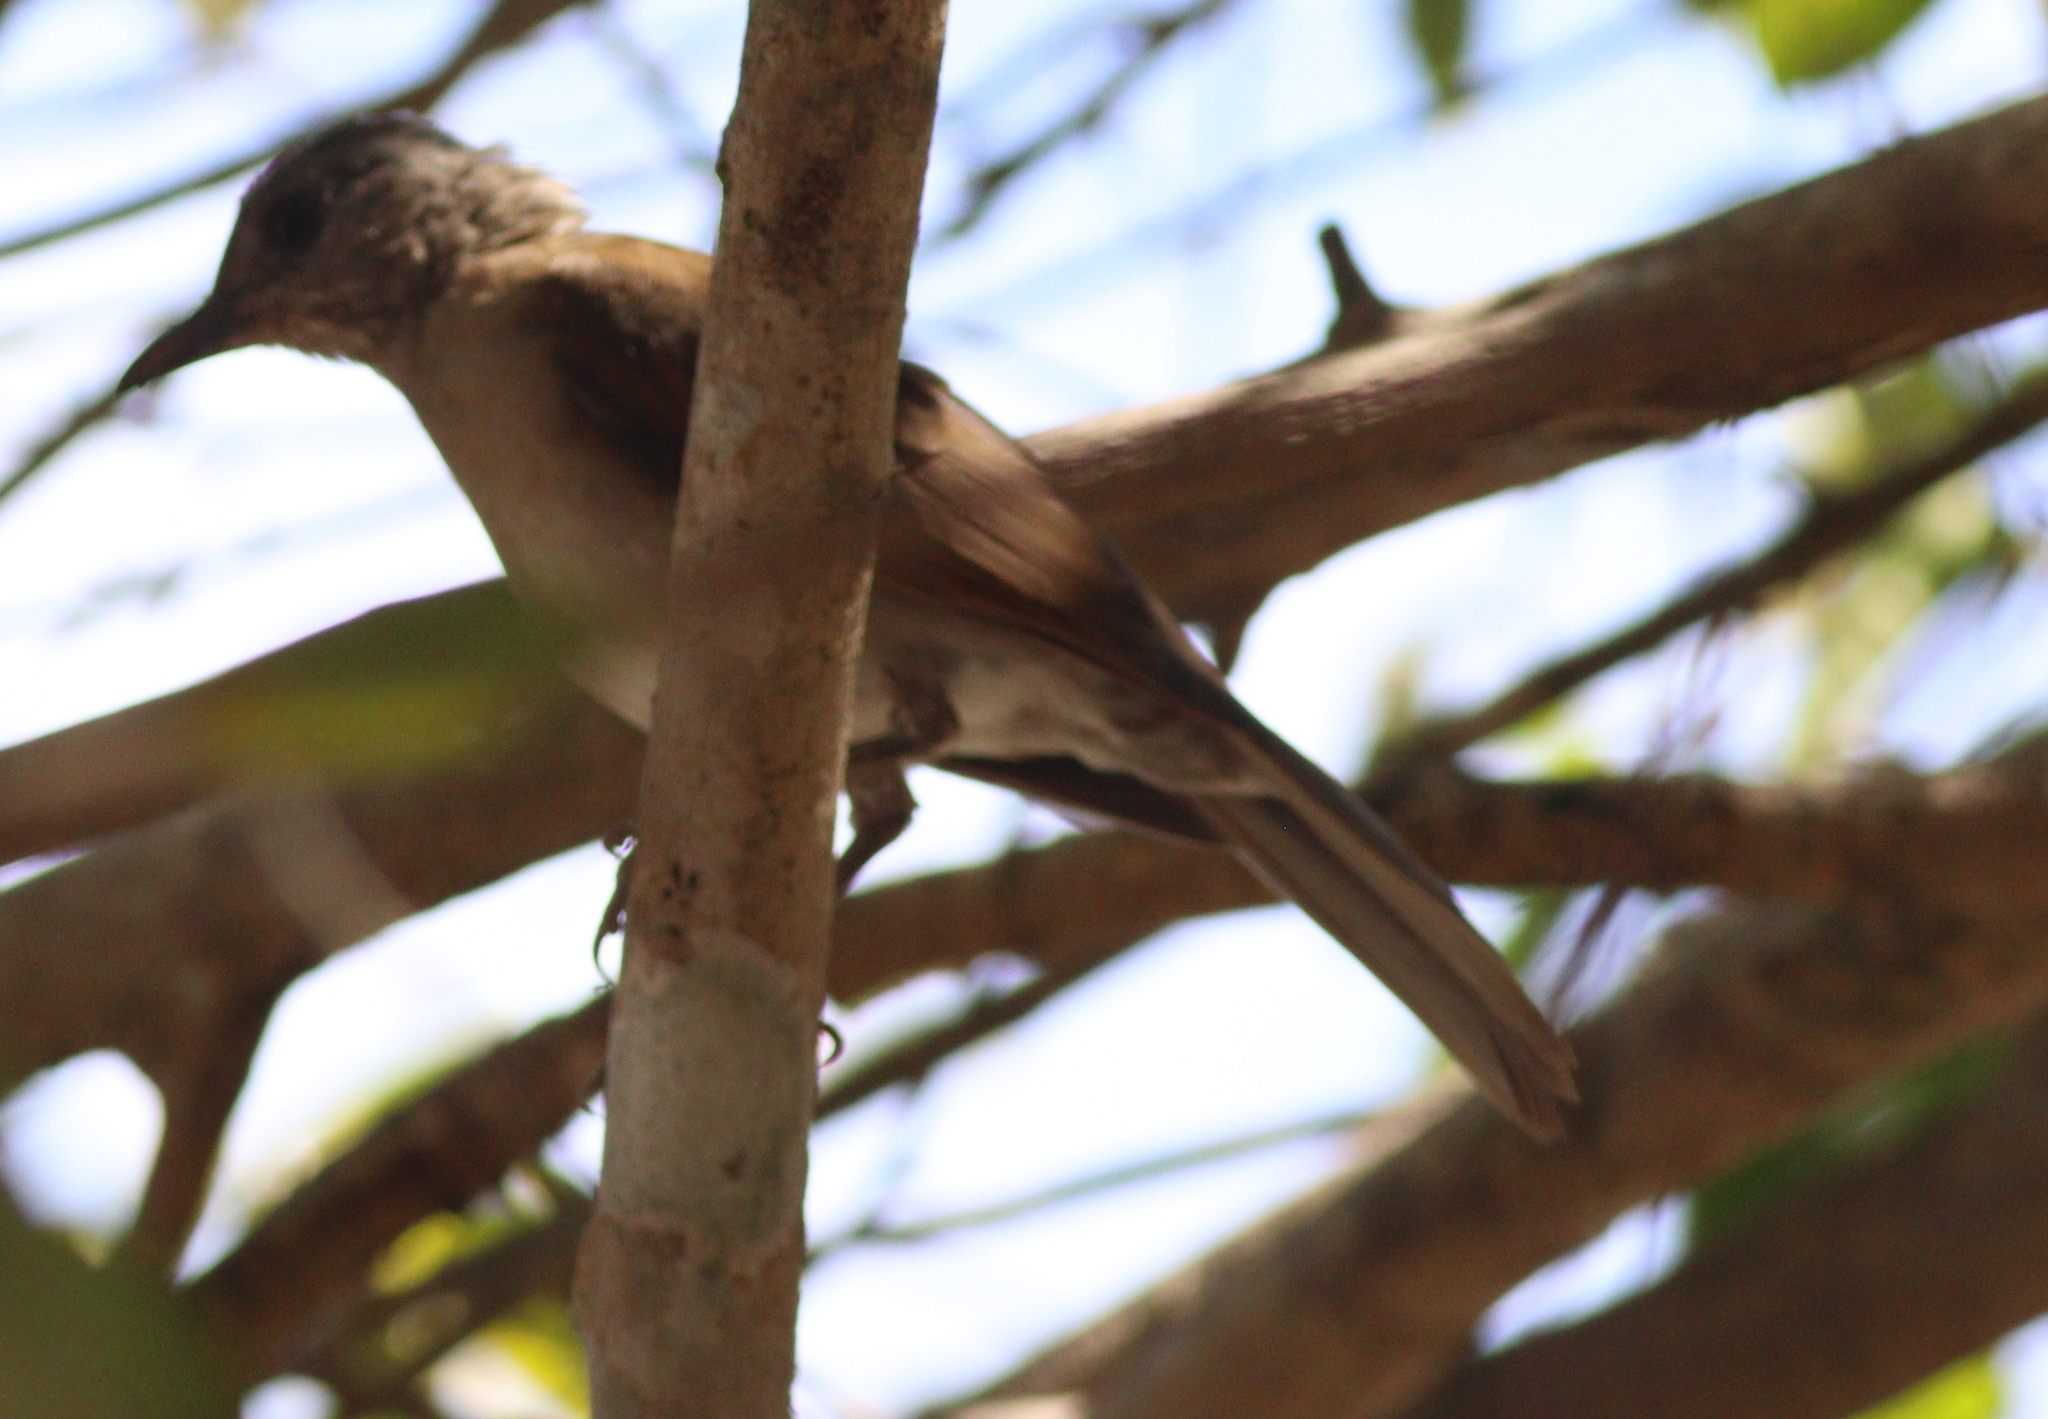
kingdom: Animalia
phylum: Chordata
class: Aves
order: Passeriformes
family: Turdidae
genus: Turdus
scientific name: Turdus leucomelas
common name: Pale-breasted thrush
